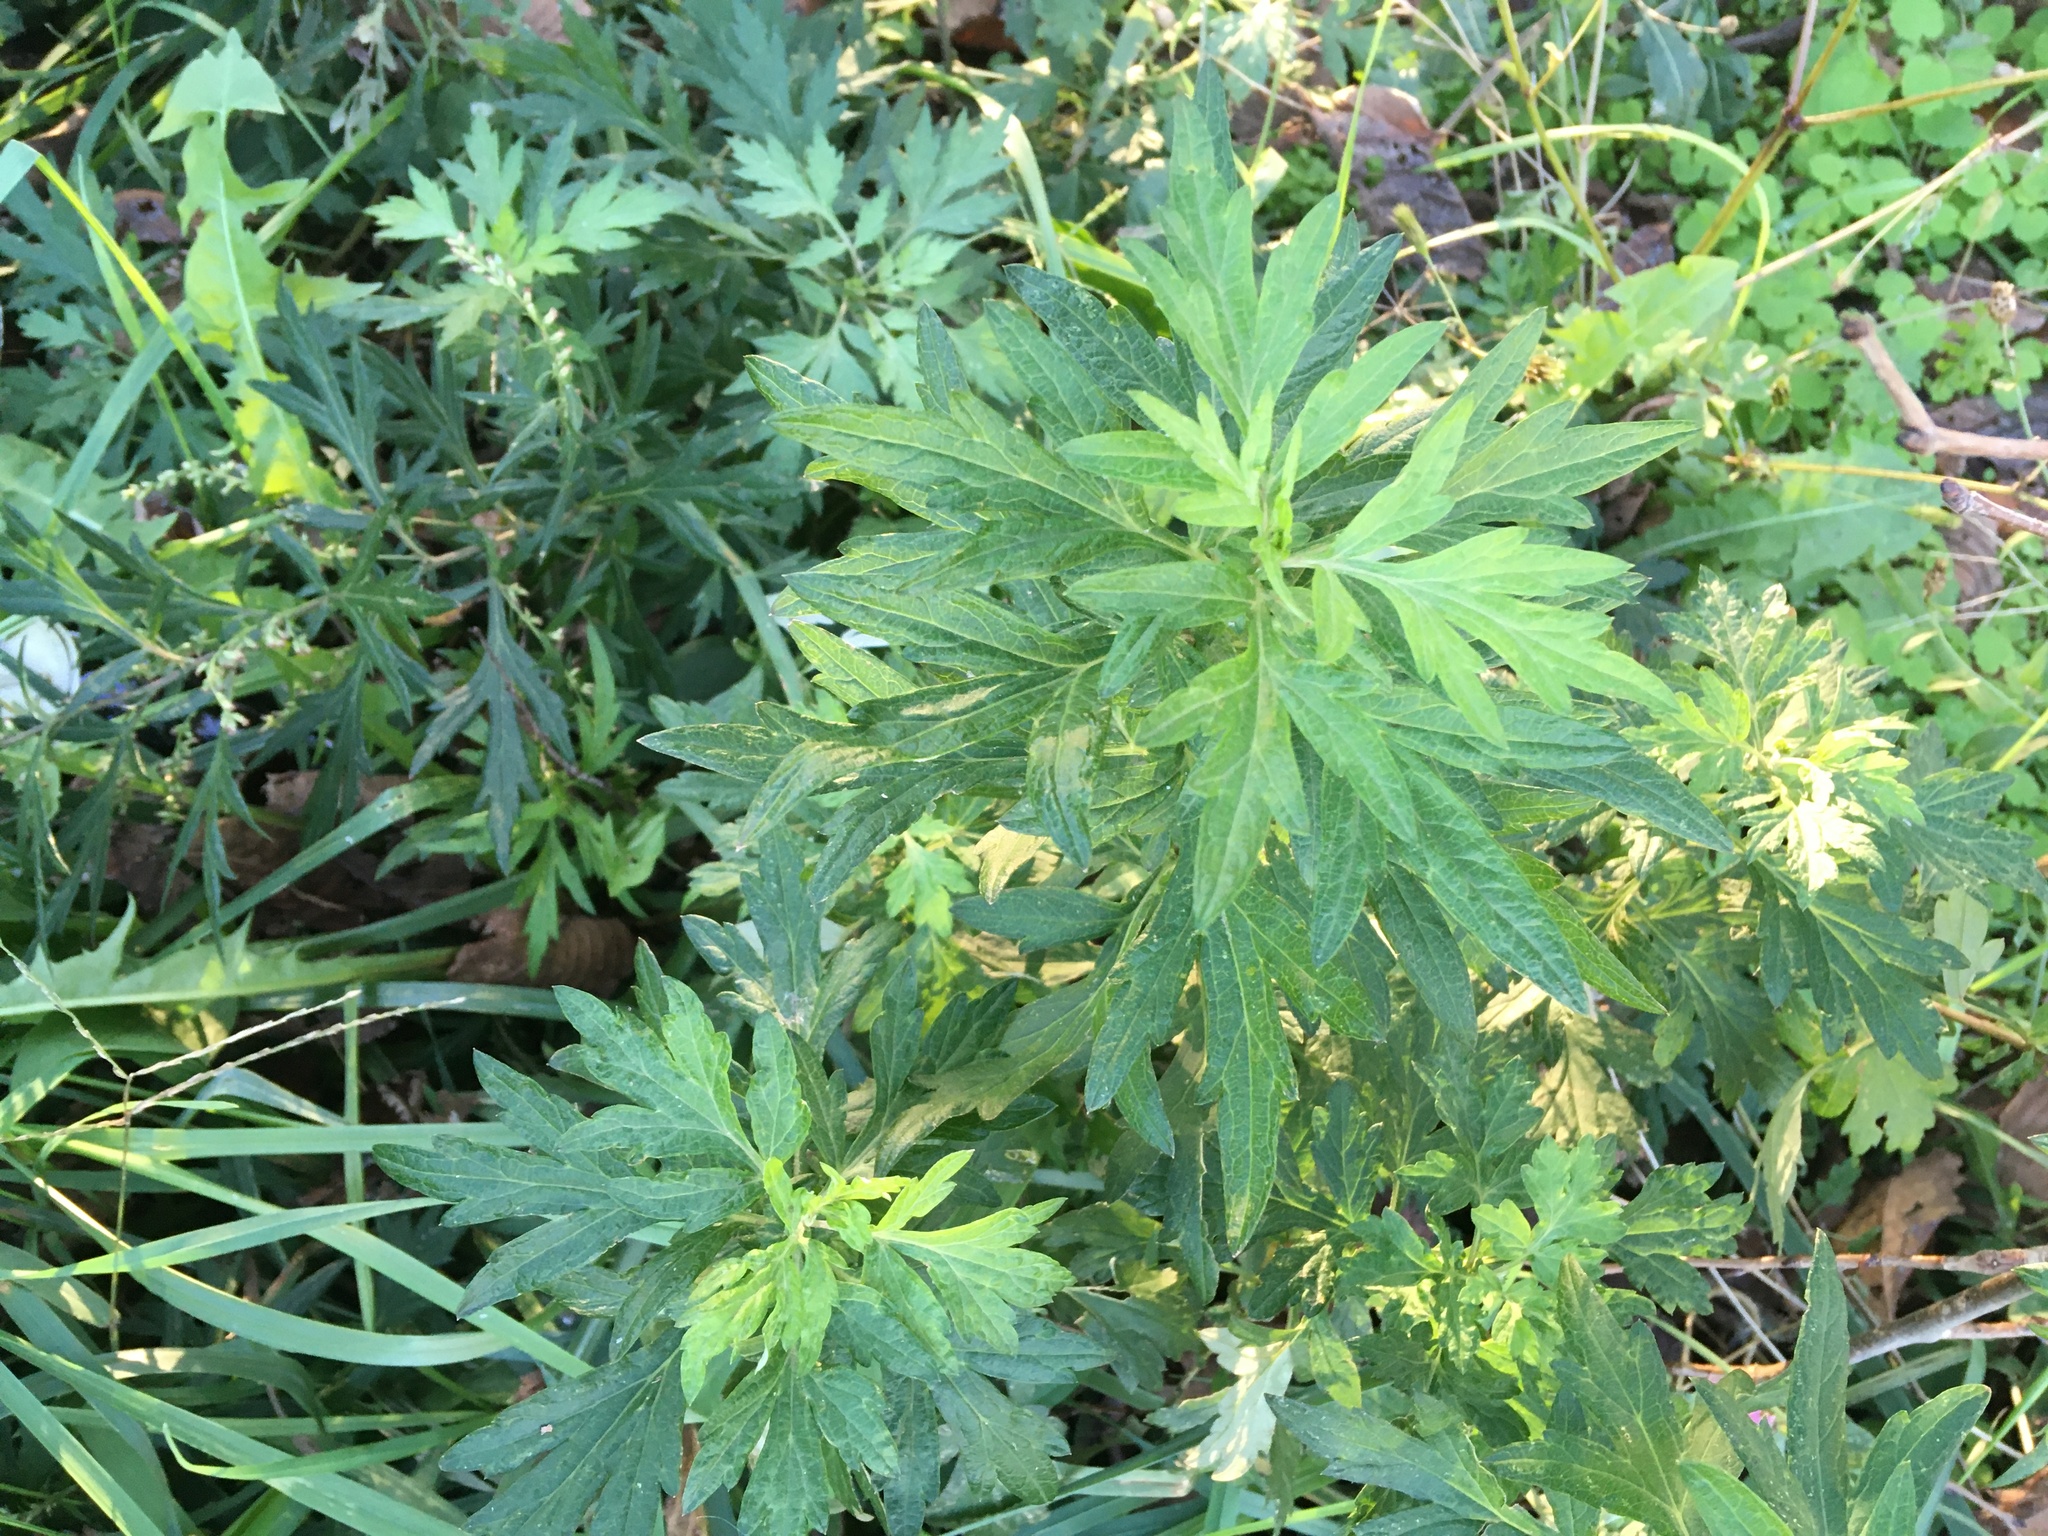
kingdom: Plantae
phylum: Tracheophyta
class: Magnoliopsida
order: Asterales
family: Asteraceae
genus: Artemisia
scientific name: Artemisia vulgaris
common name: Mugwort
